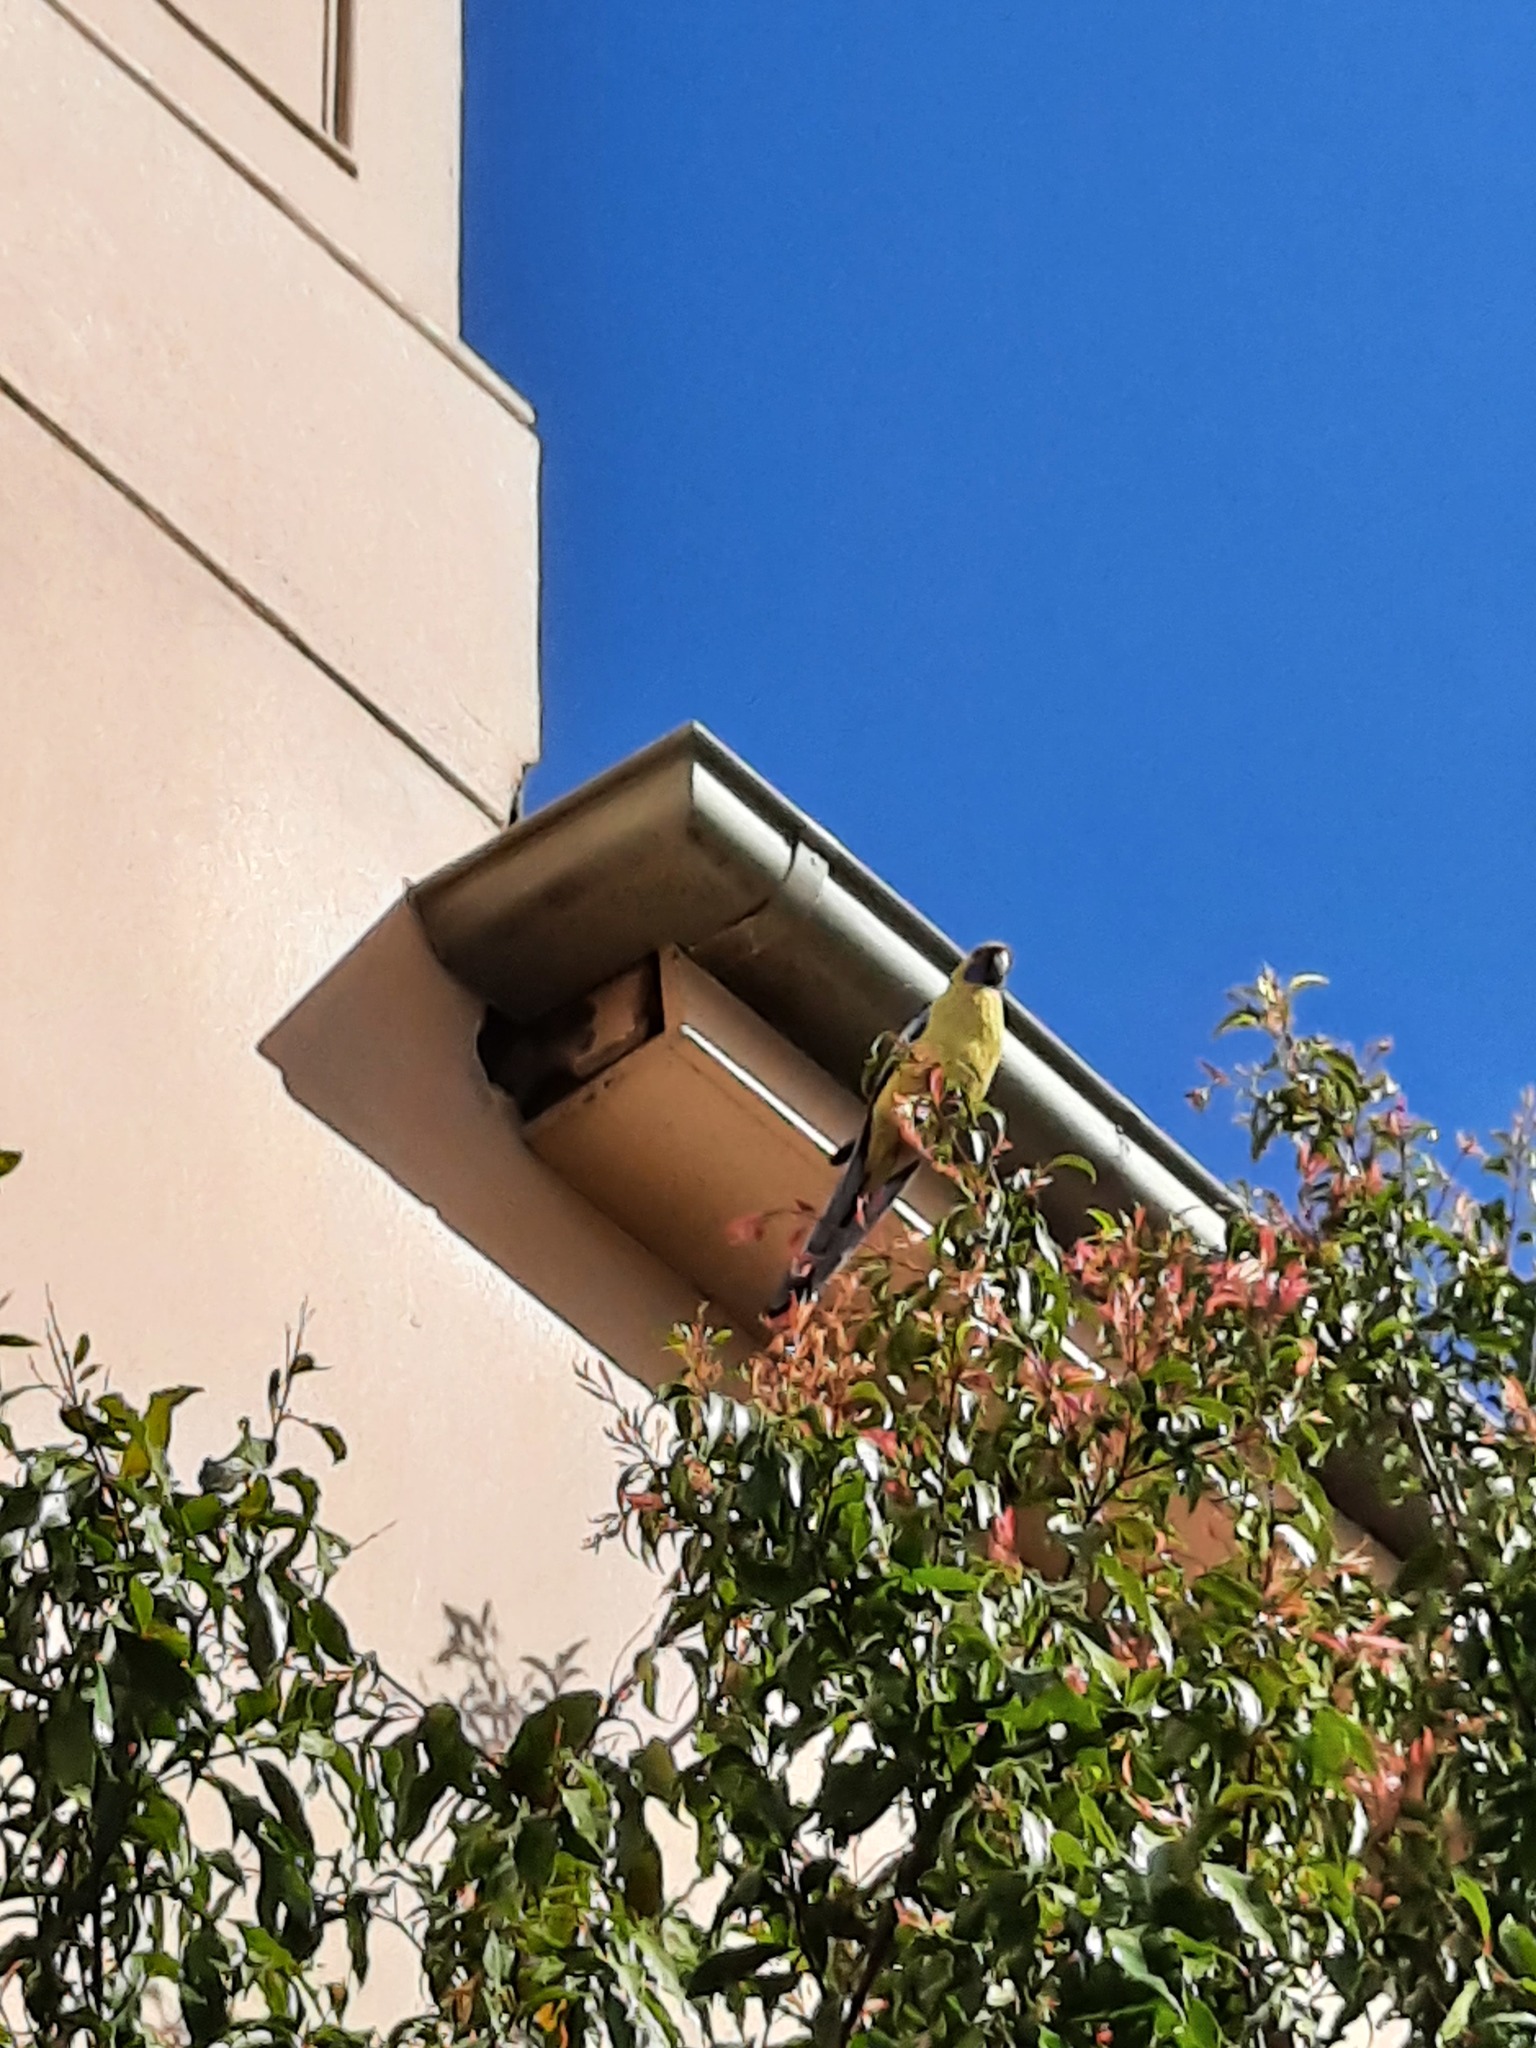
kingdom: Animalia
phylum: Chordata
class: Aves
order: Psittaciformes
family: Psittacidae
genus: Platycercus
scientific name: Platycercus elegans
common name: Crimson rosella
